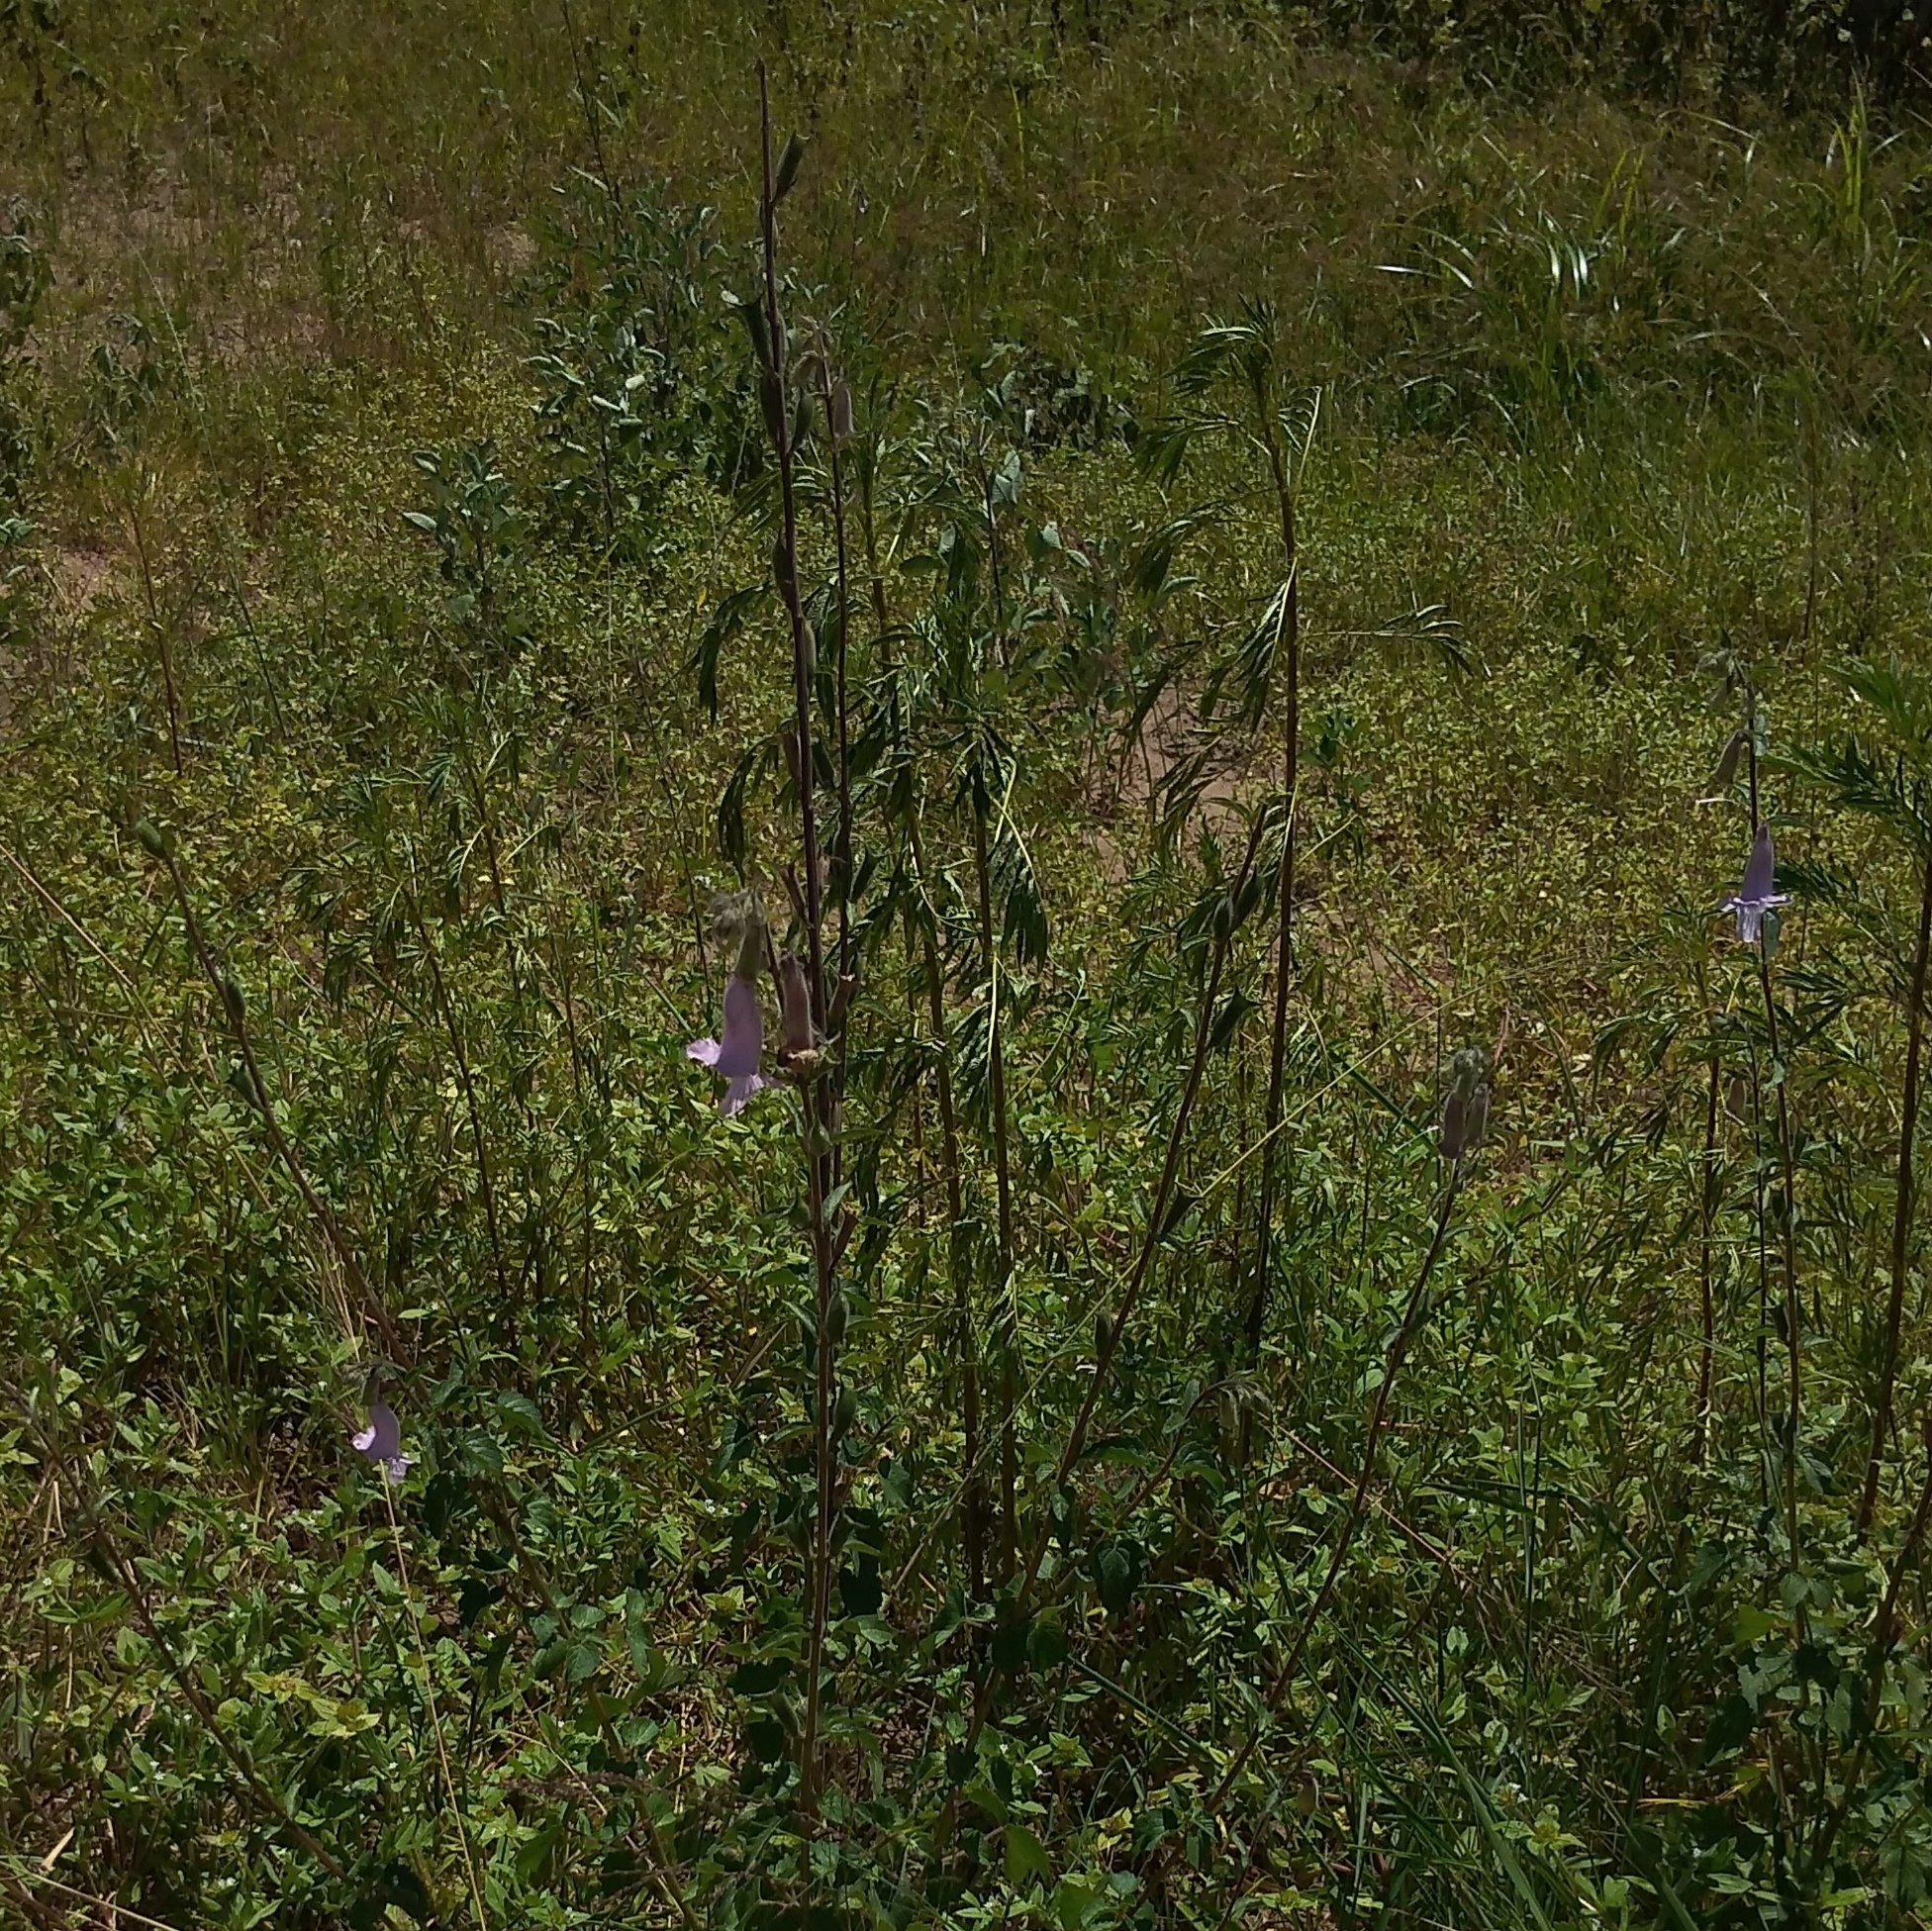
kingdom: Plantae
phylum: Tracheophyta
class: Magnoliopsida
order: Lamiales
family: Pedaliaceae
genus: Sesamum
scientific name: Sesamum trilobum
